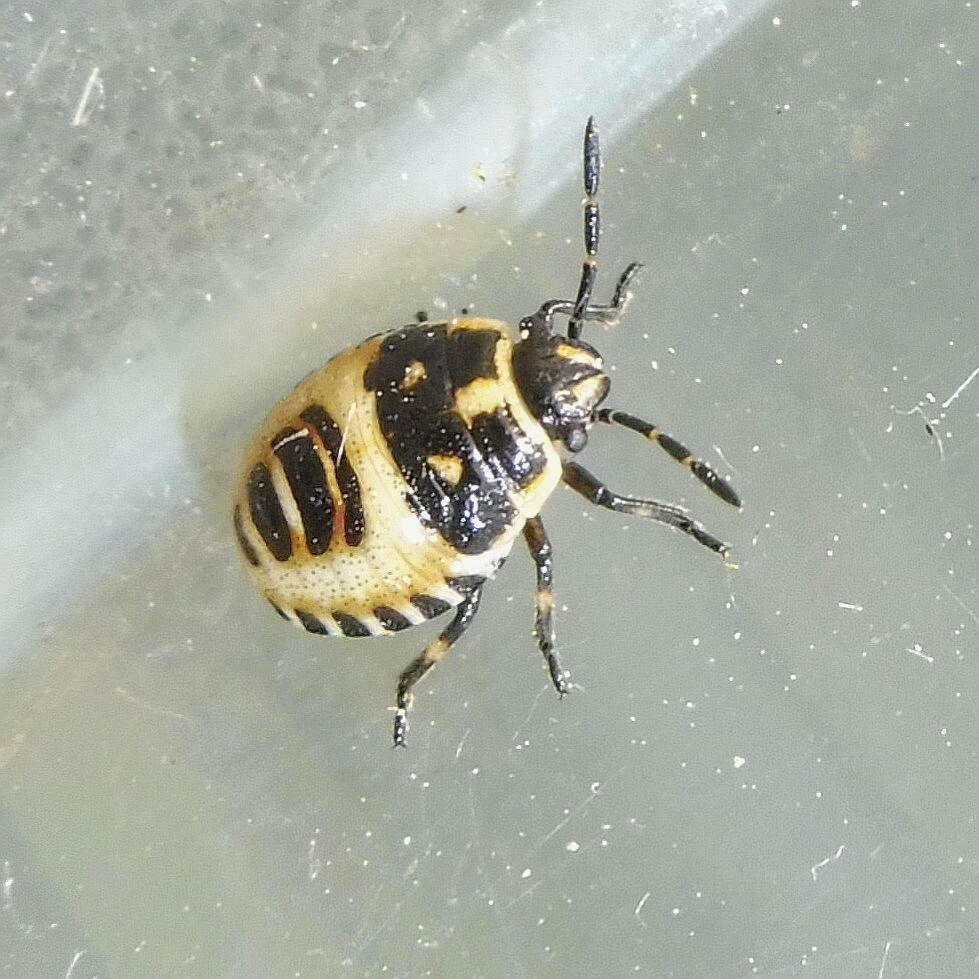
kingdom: Animalia
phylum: Arthropoda
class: Insecta
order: Hemiptera
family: Pentatomidae
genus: Eurydema
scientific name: Eurydema oleracea
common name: Cabbage bug
